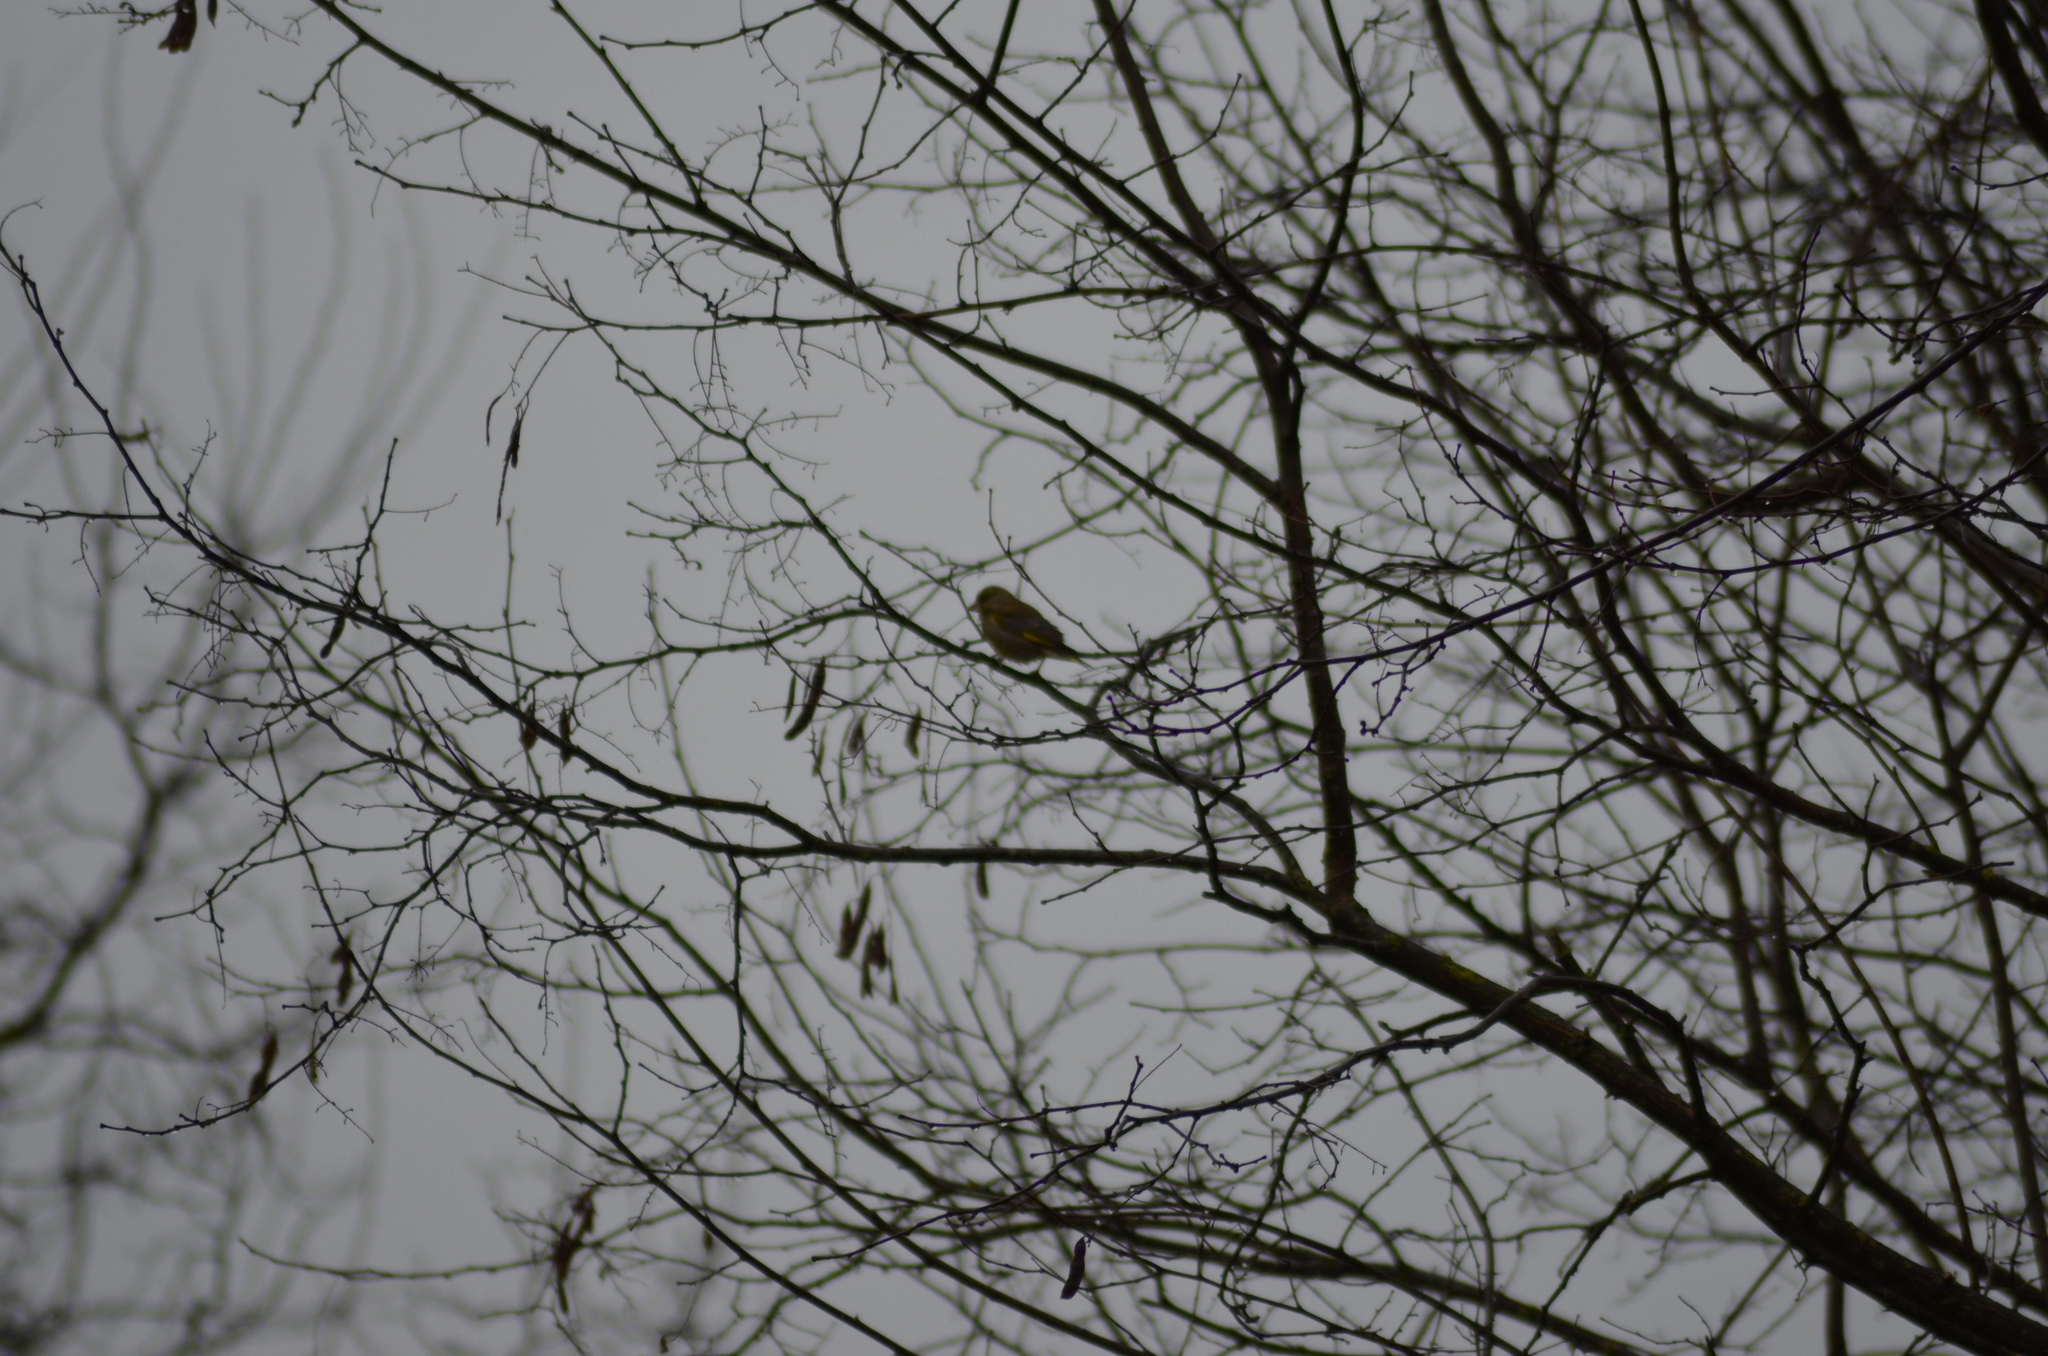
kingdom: Plantae
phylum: Tracheophyta
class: Liliopsida
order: Poales
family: Poaceae
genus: Chloris
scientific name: Chloris chloris
